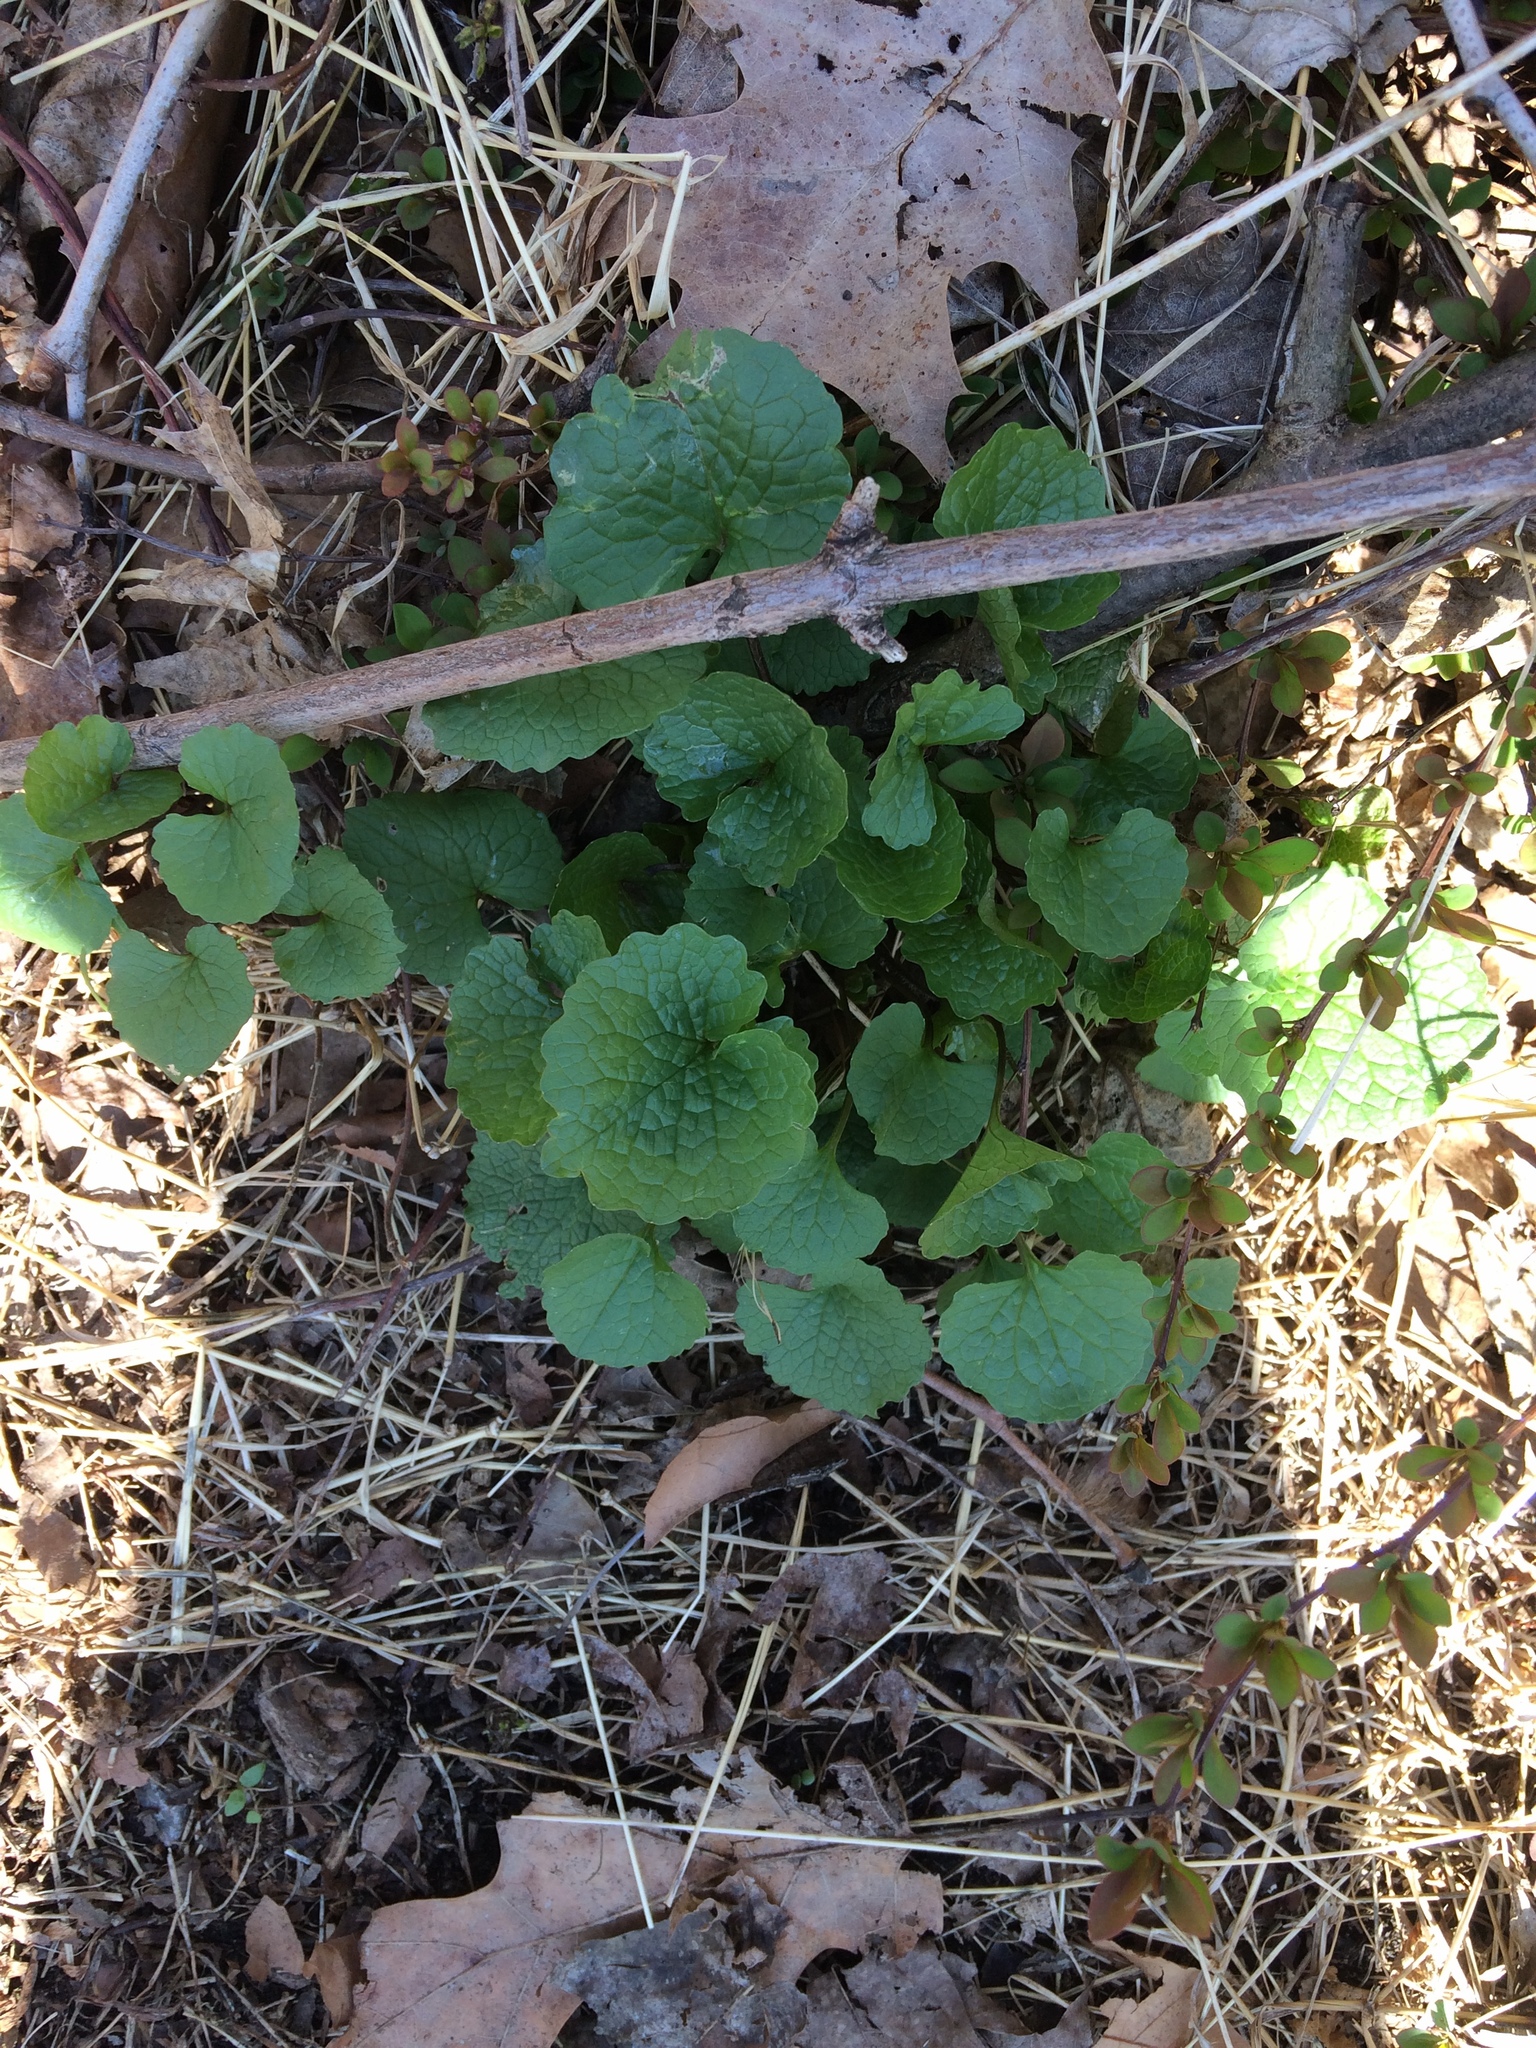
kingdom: Plantae
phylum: Tracheophyta
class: Magnoliopsida
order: Brassicales
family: Brassicaceae
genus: Alliaria
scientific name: Alliaria petiolata
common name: Garlic mustard
